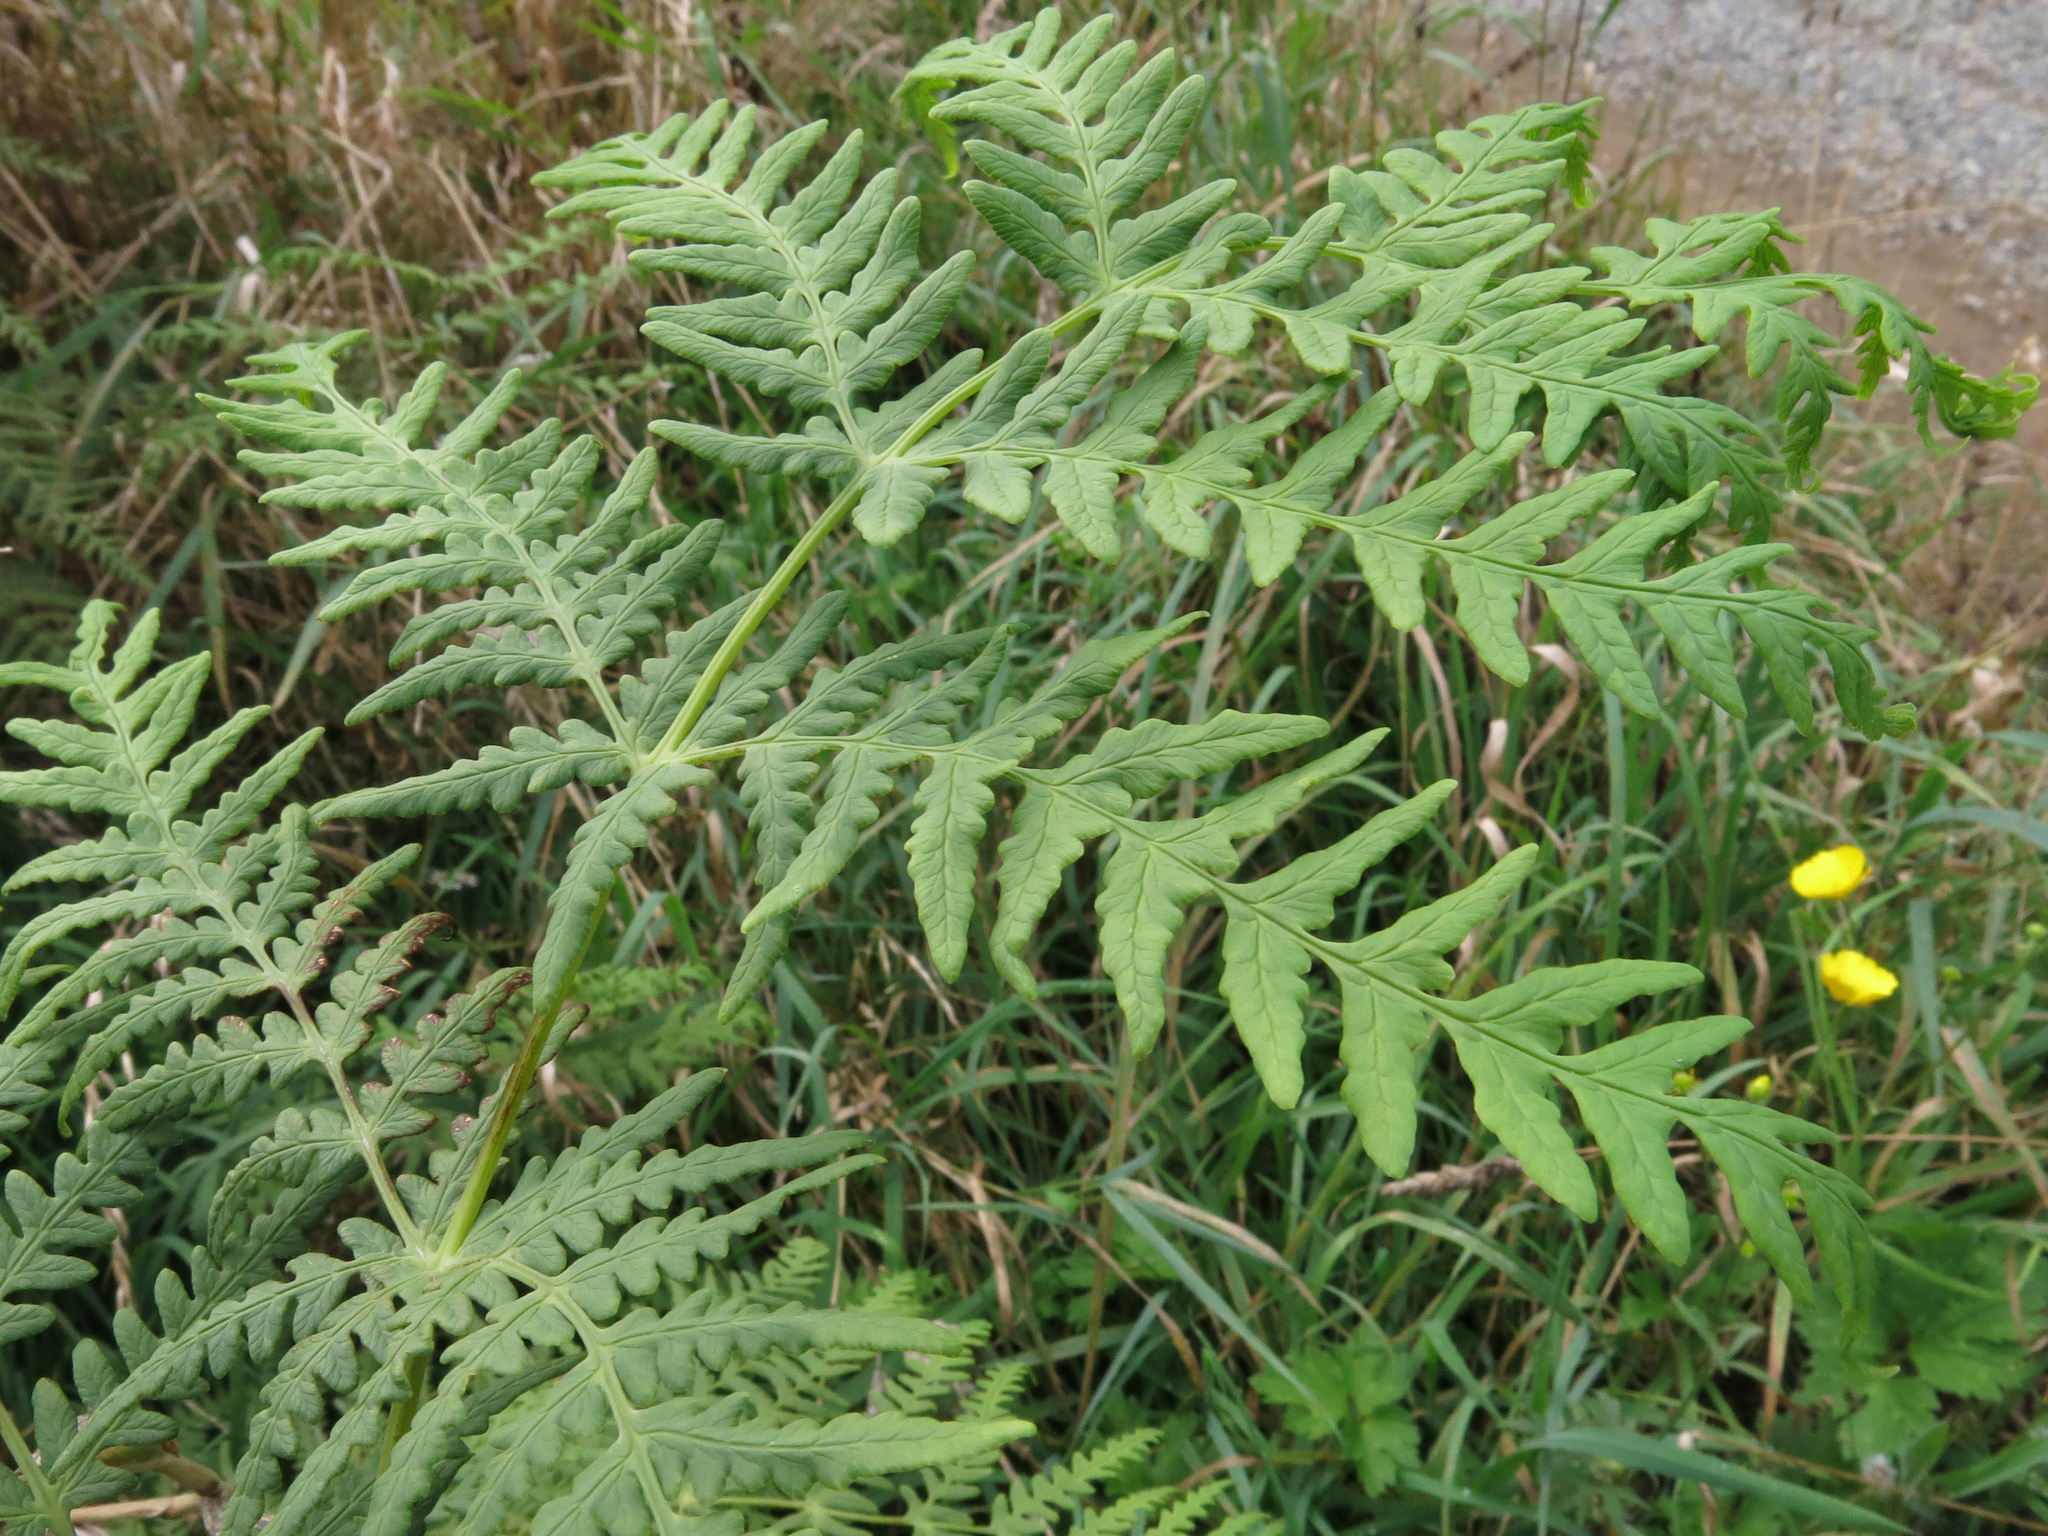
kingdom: Plantae
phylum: Tracheophyta
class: Polypodiopsida
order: Polypodiales
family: Dennstaedtiaceae
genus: Histiopteris
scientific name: Histiopteris incisa
